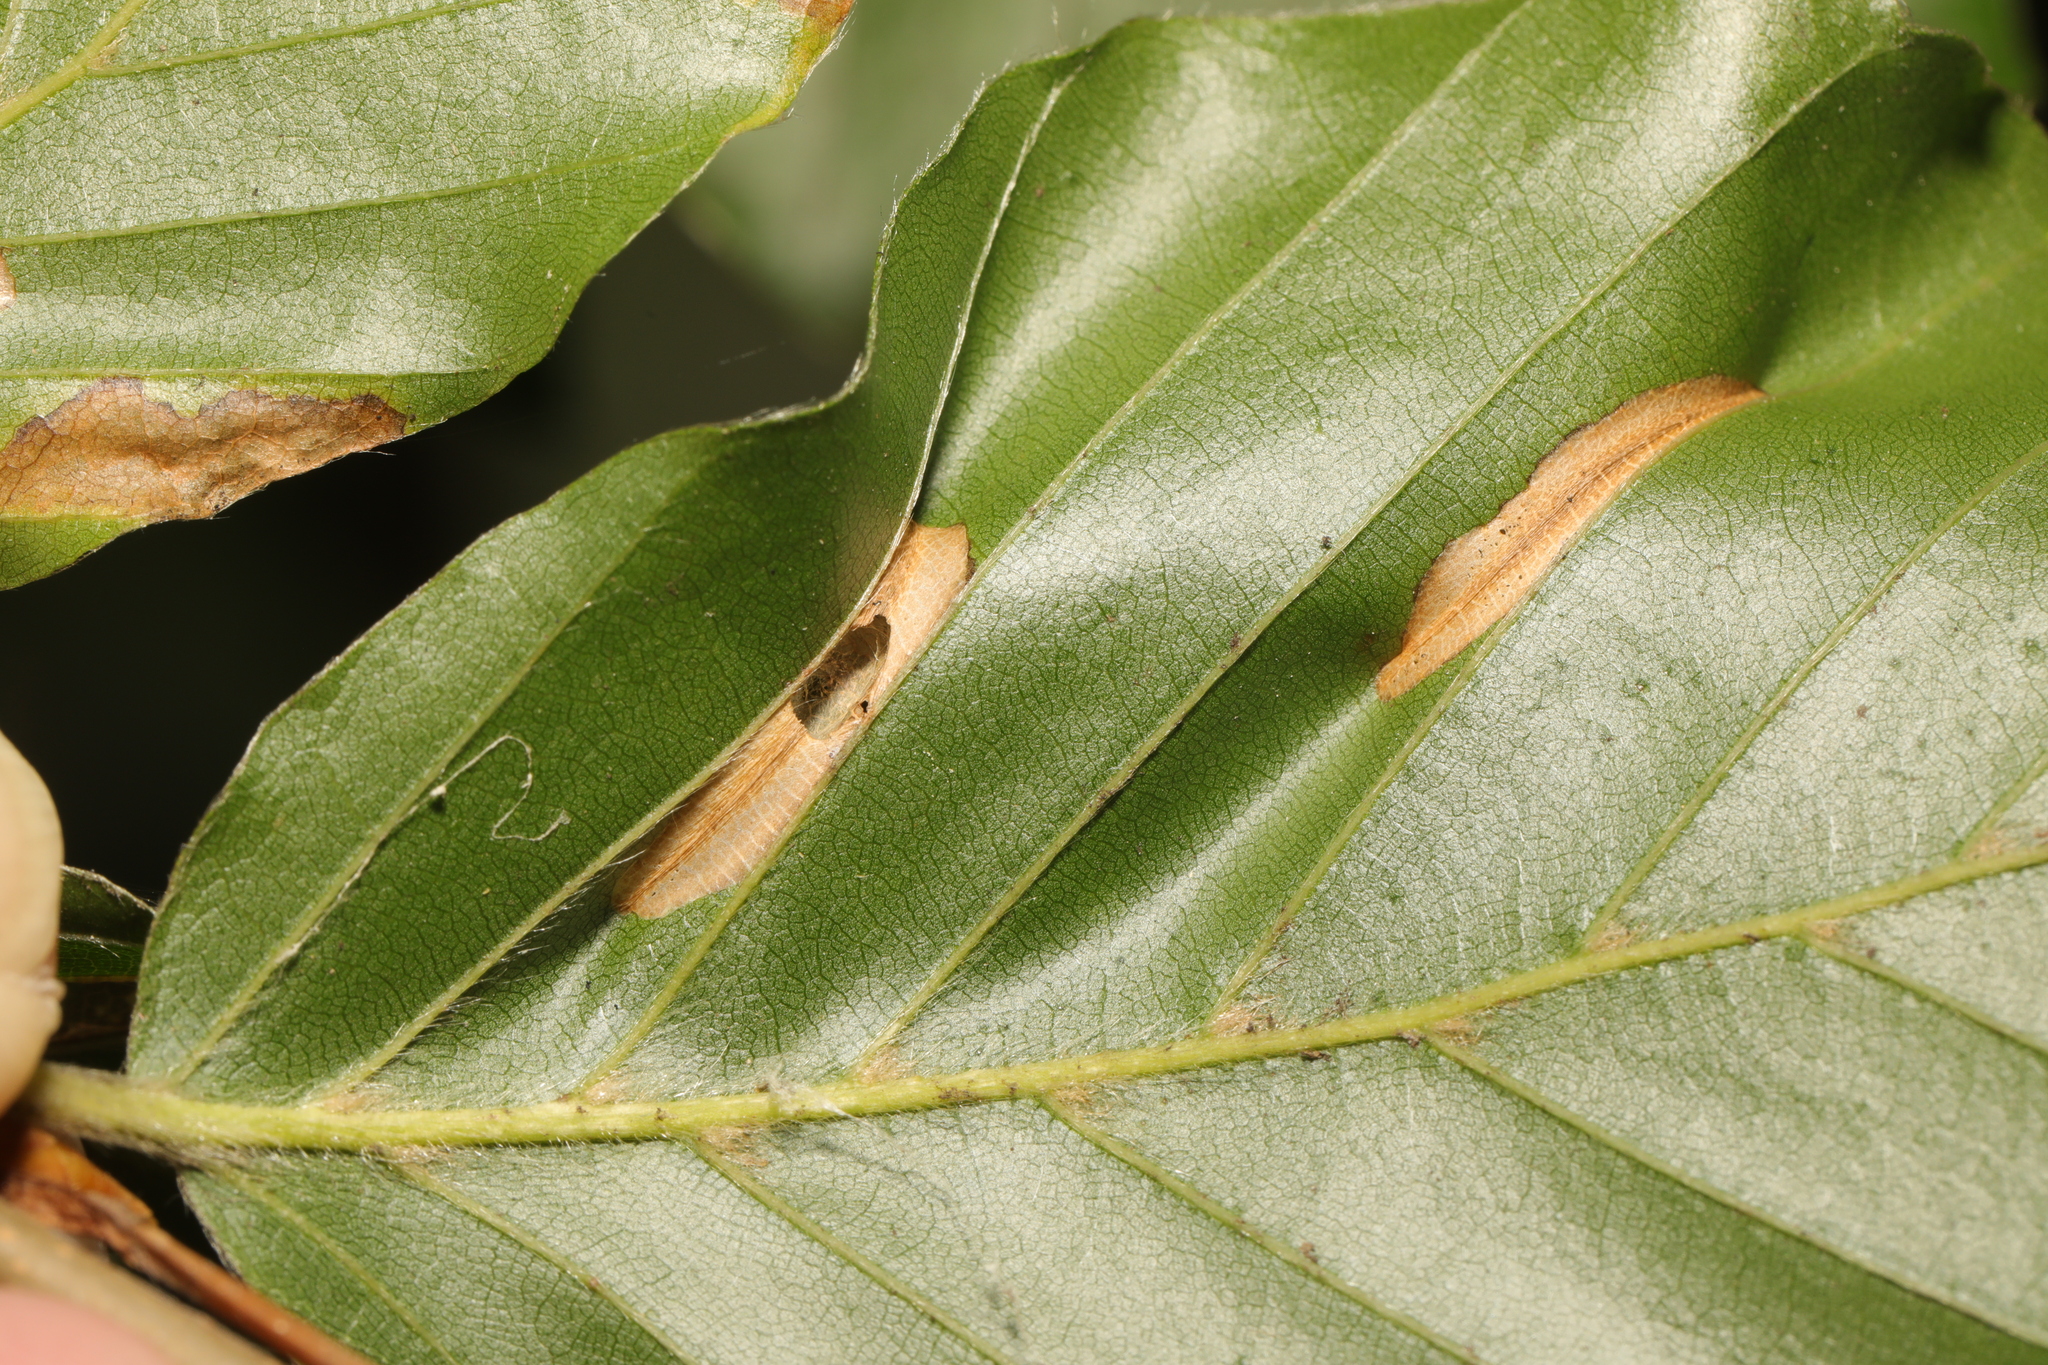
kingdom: Plantae
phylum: Tracheophyta
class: Magnoliopsida
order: Fagales
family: Fagaceae
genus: Fagus
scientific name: Fagus sylvatica
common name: Beech
